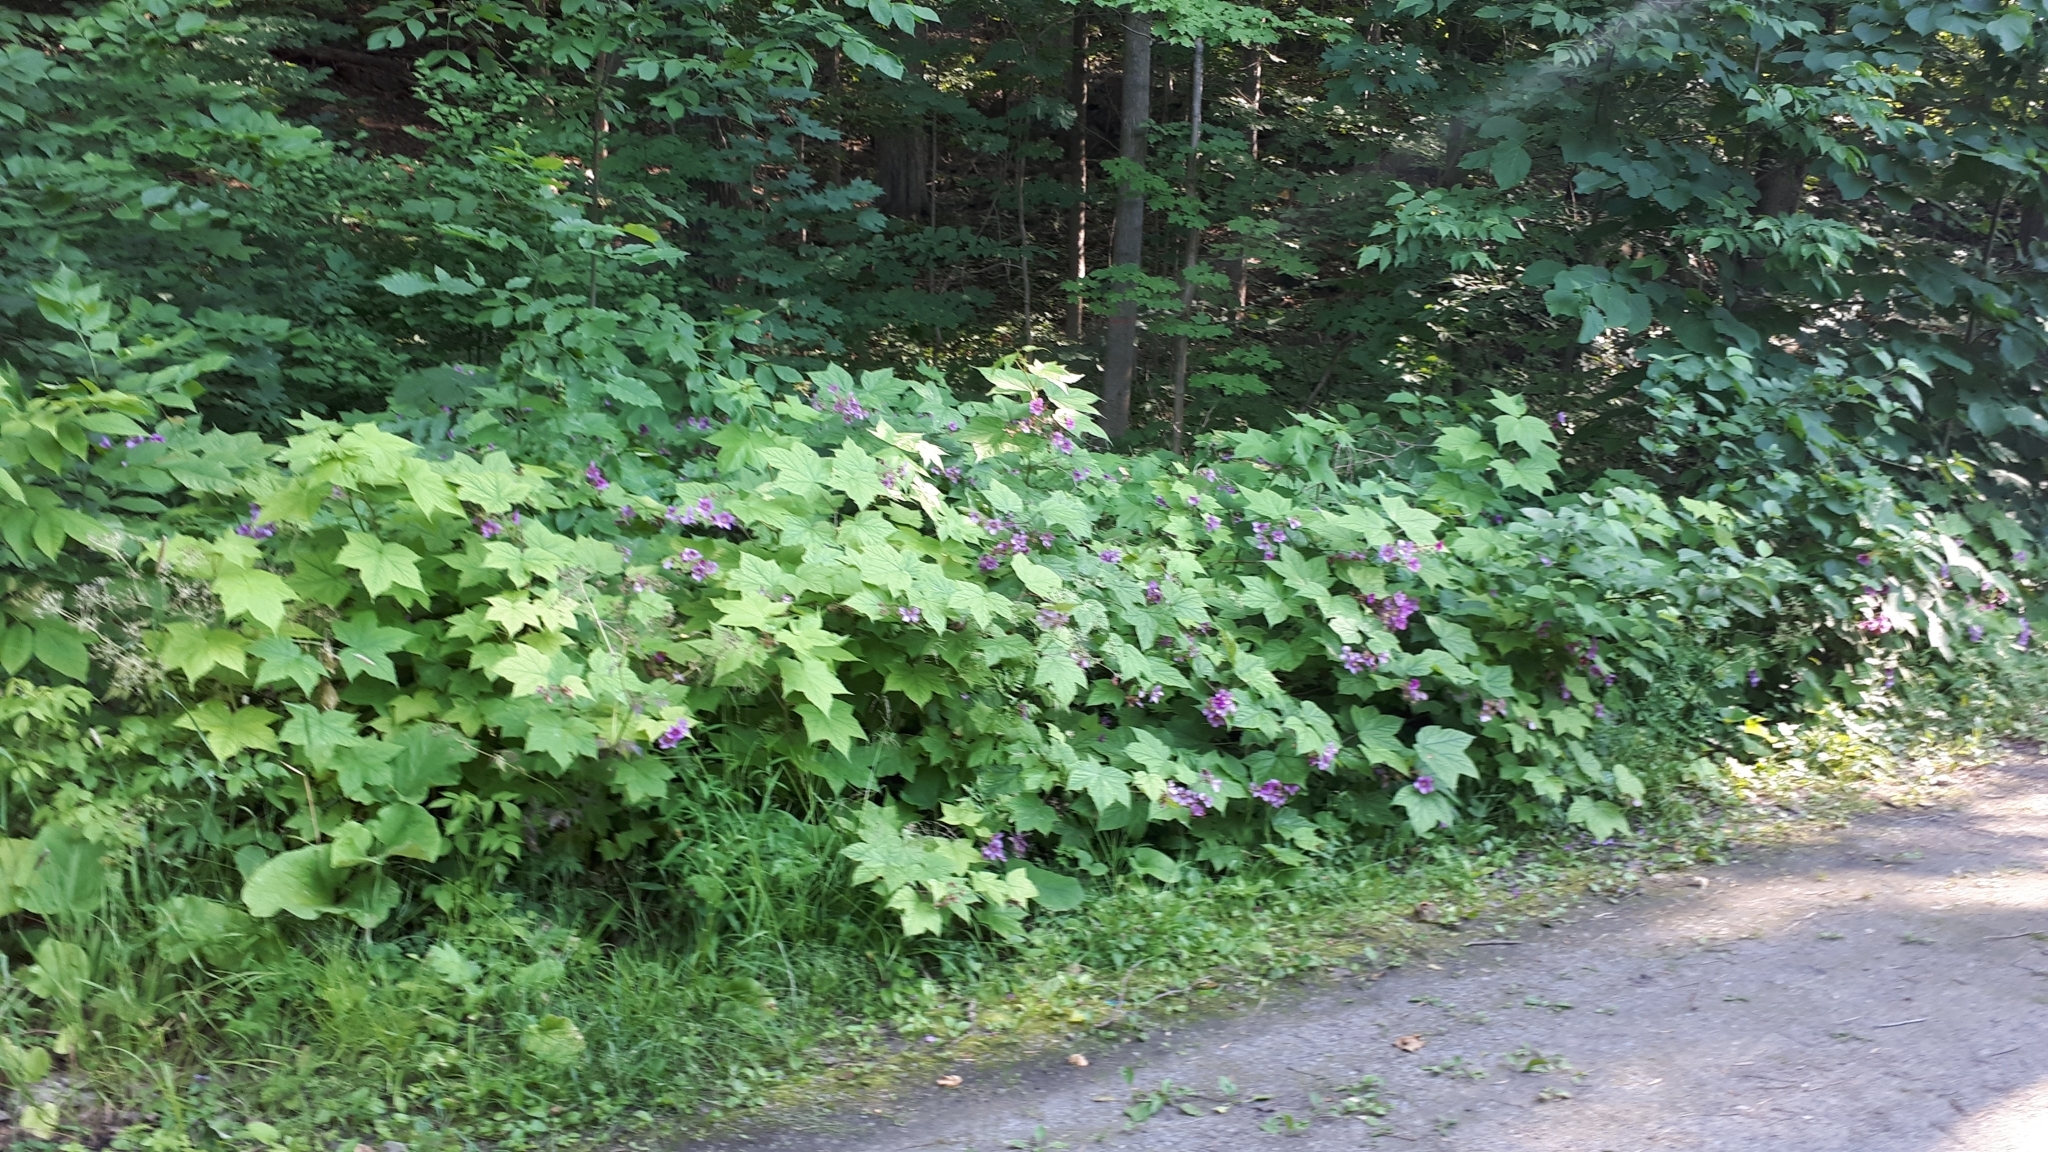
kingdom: Plantae
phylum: Tracheophyta
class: Magnoliopsida
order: Rosales
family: Rosaceae
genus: Rubus
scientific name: Rubus odoratus
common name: Purple-flowered raspberry
